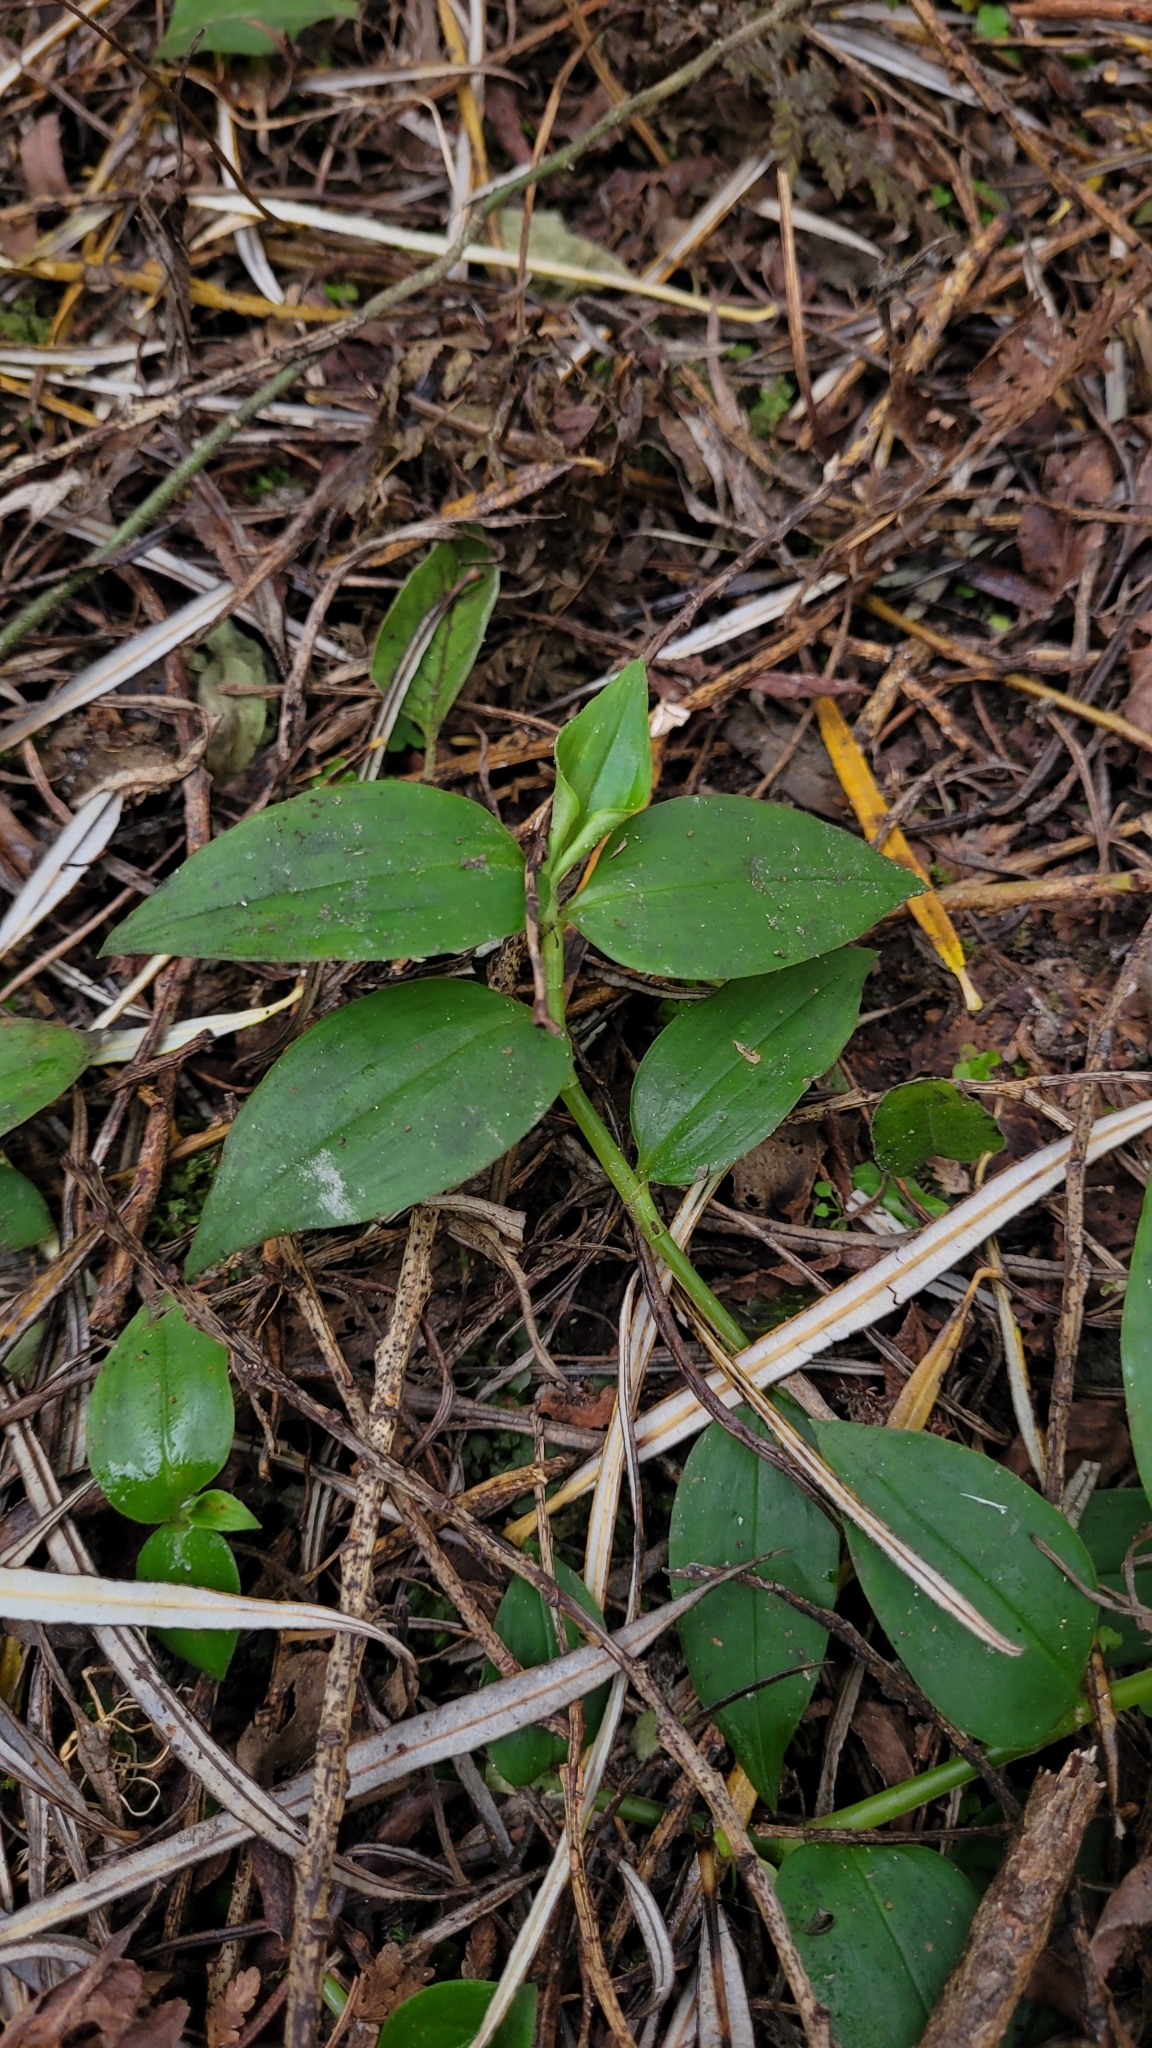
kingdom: Plantae
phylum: Tracheophyta
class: Liliopsida
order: Commelinales
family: Commelinaceae
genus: Tradescantia
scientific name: Tradescantia fluminensis
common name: Wandering-jew
